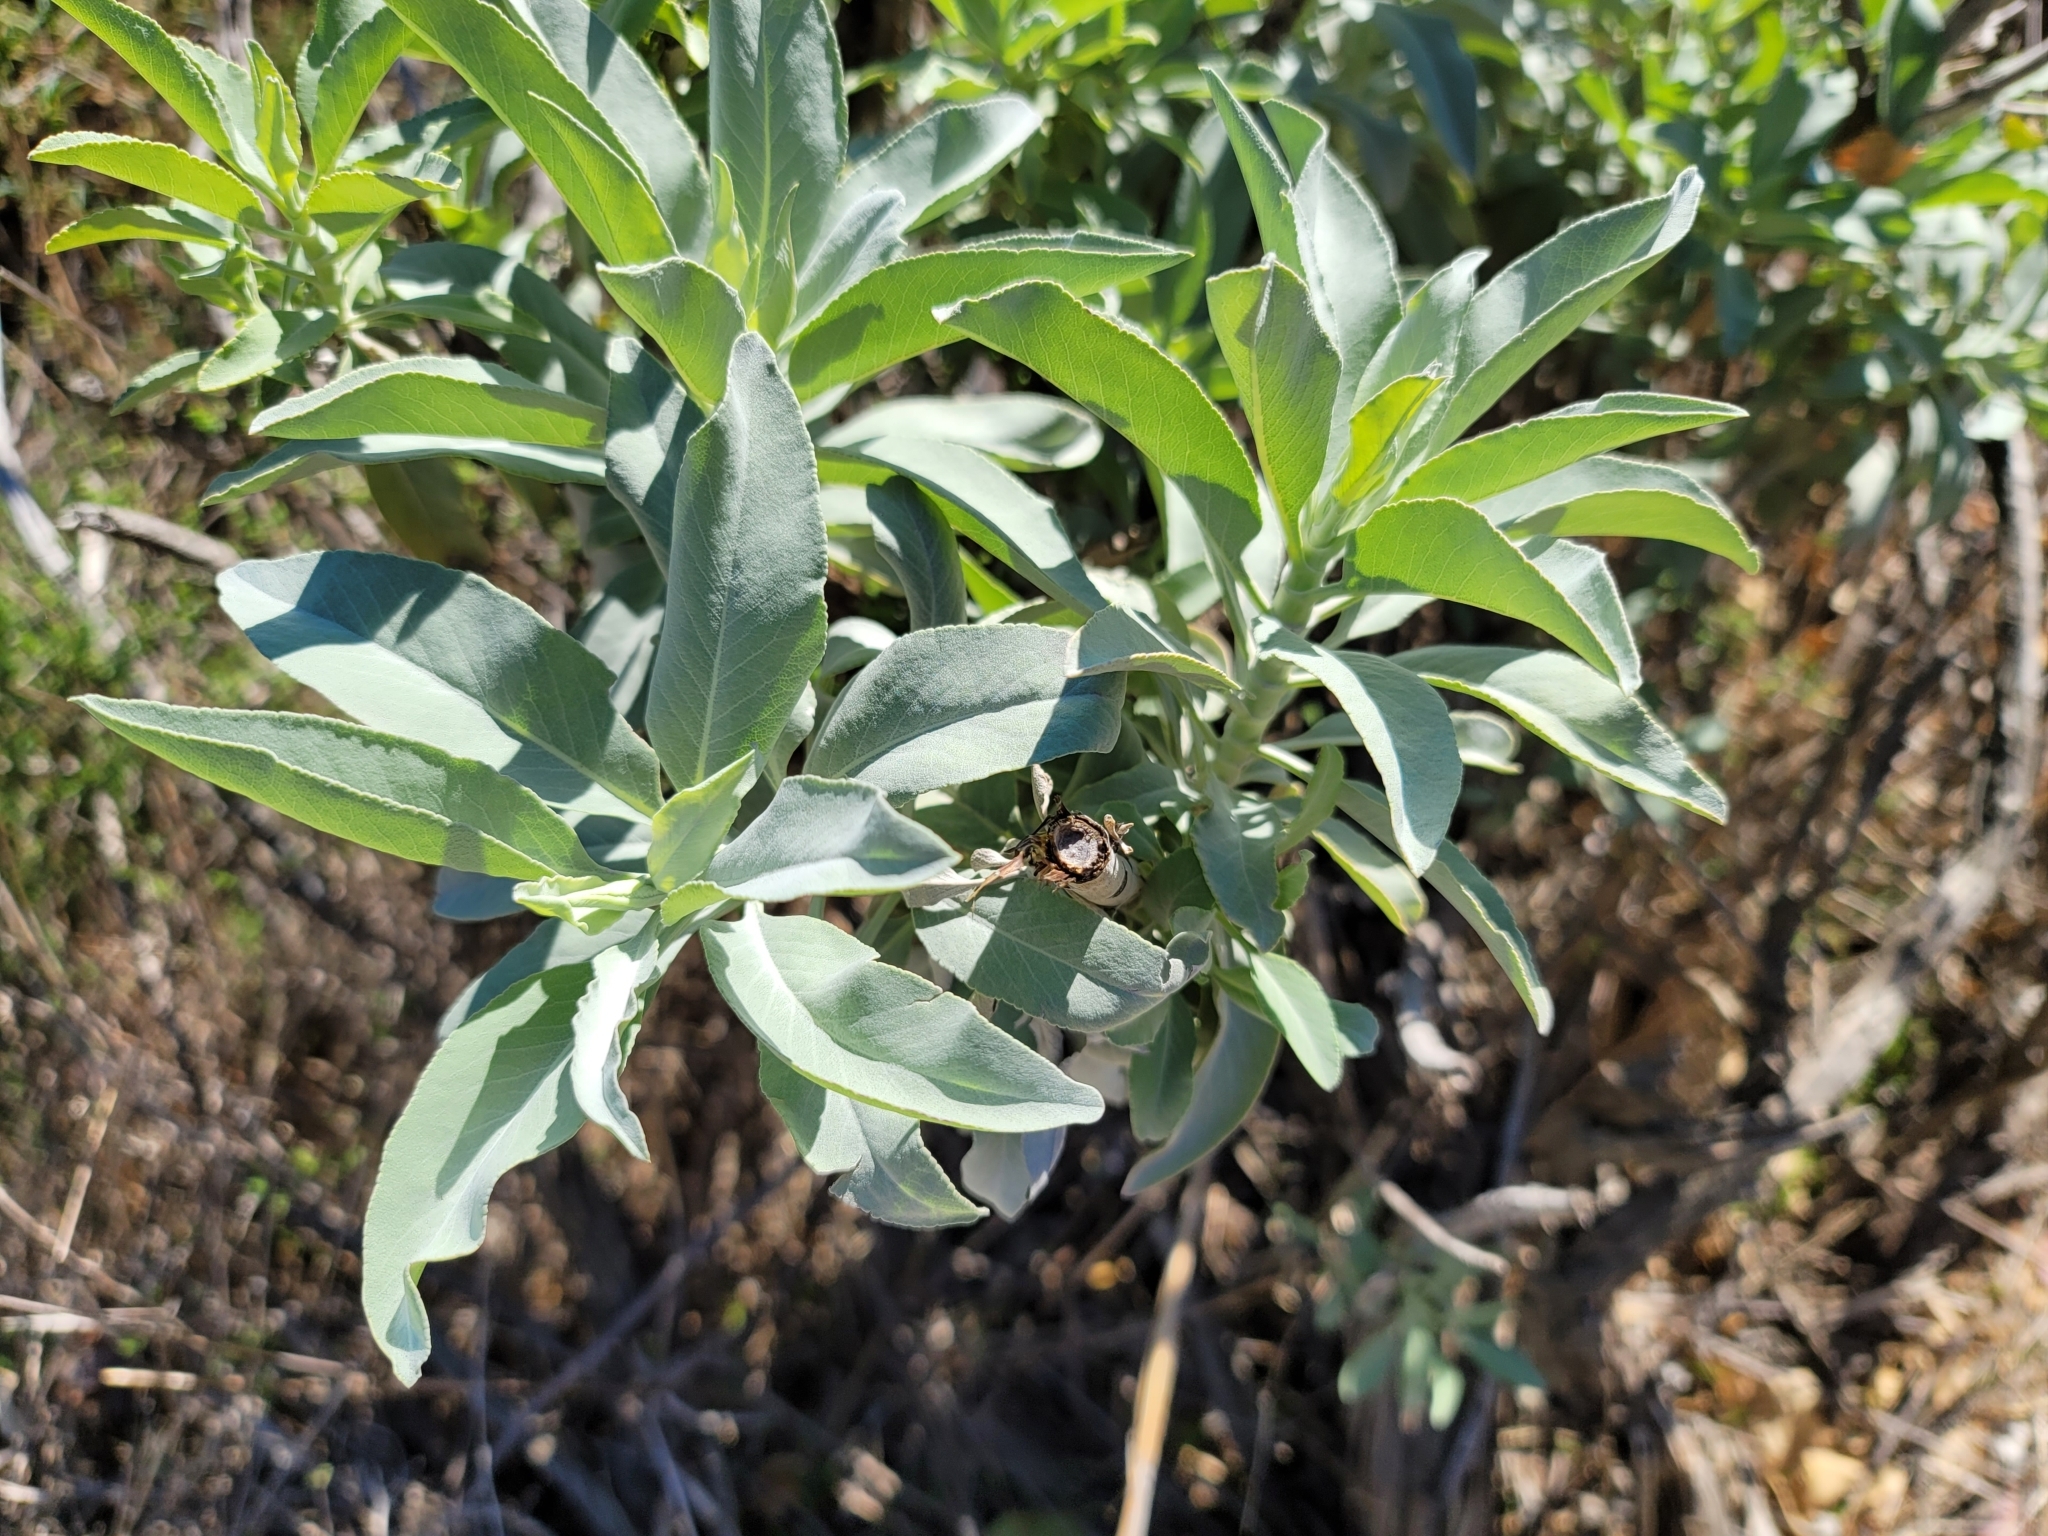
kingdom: Plantae
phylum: Tracheophyta
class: Magnoliopsida
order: Lamiales
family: Lamiaceae
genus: Salvia
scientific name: Salvia apiana
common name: White sage
